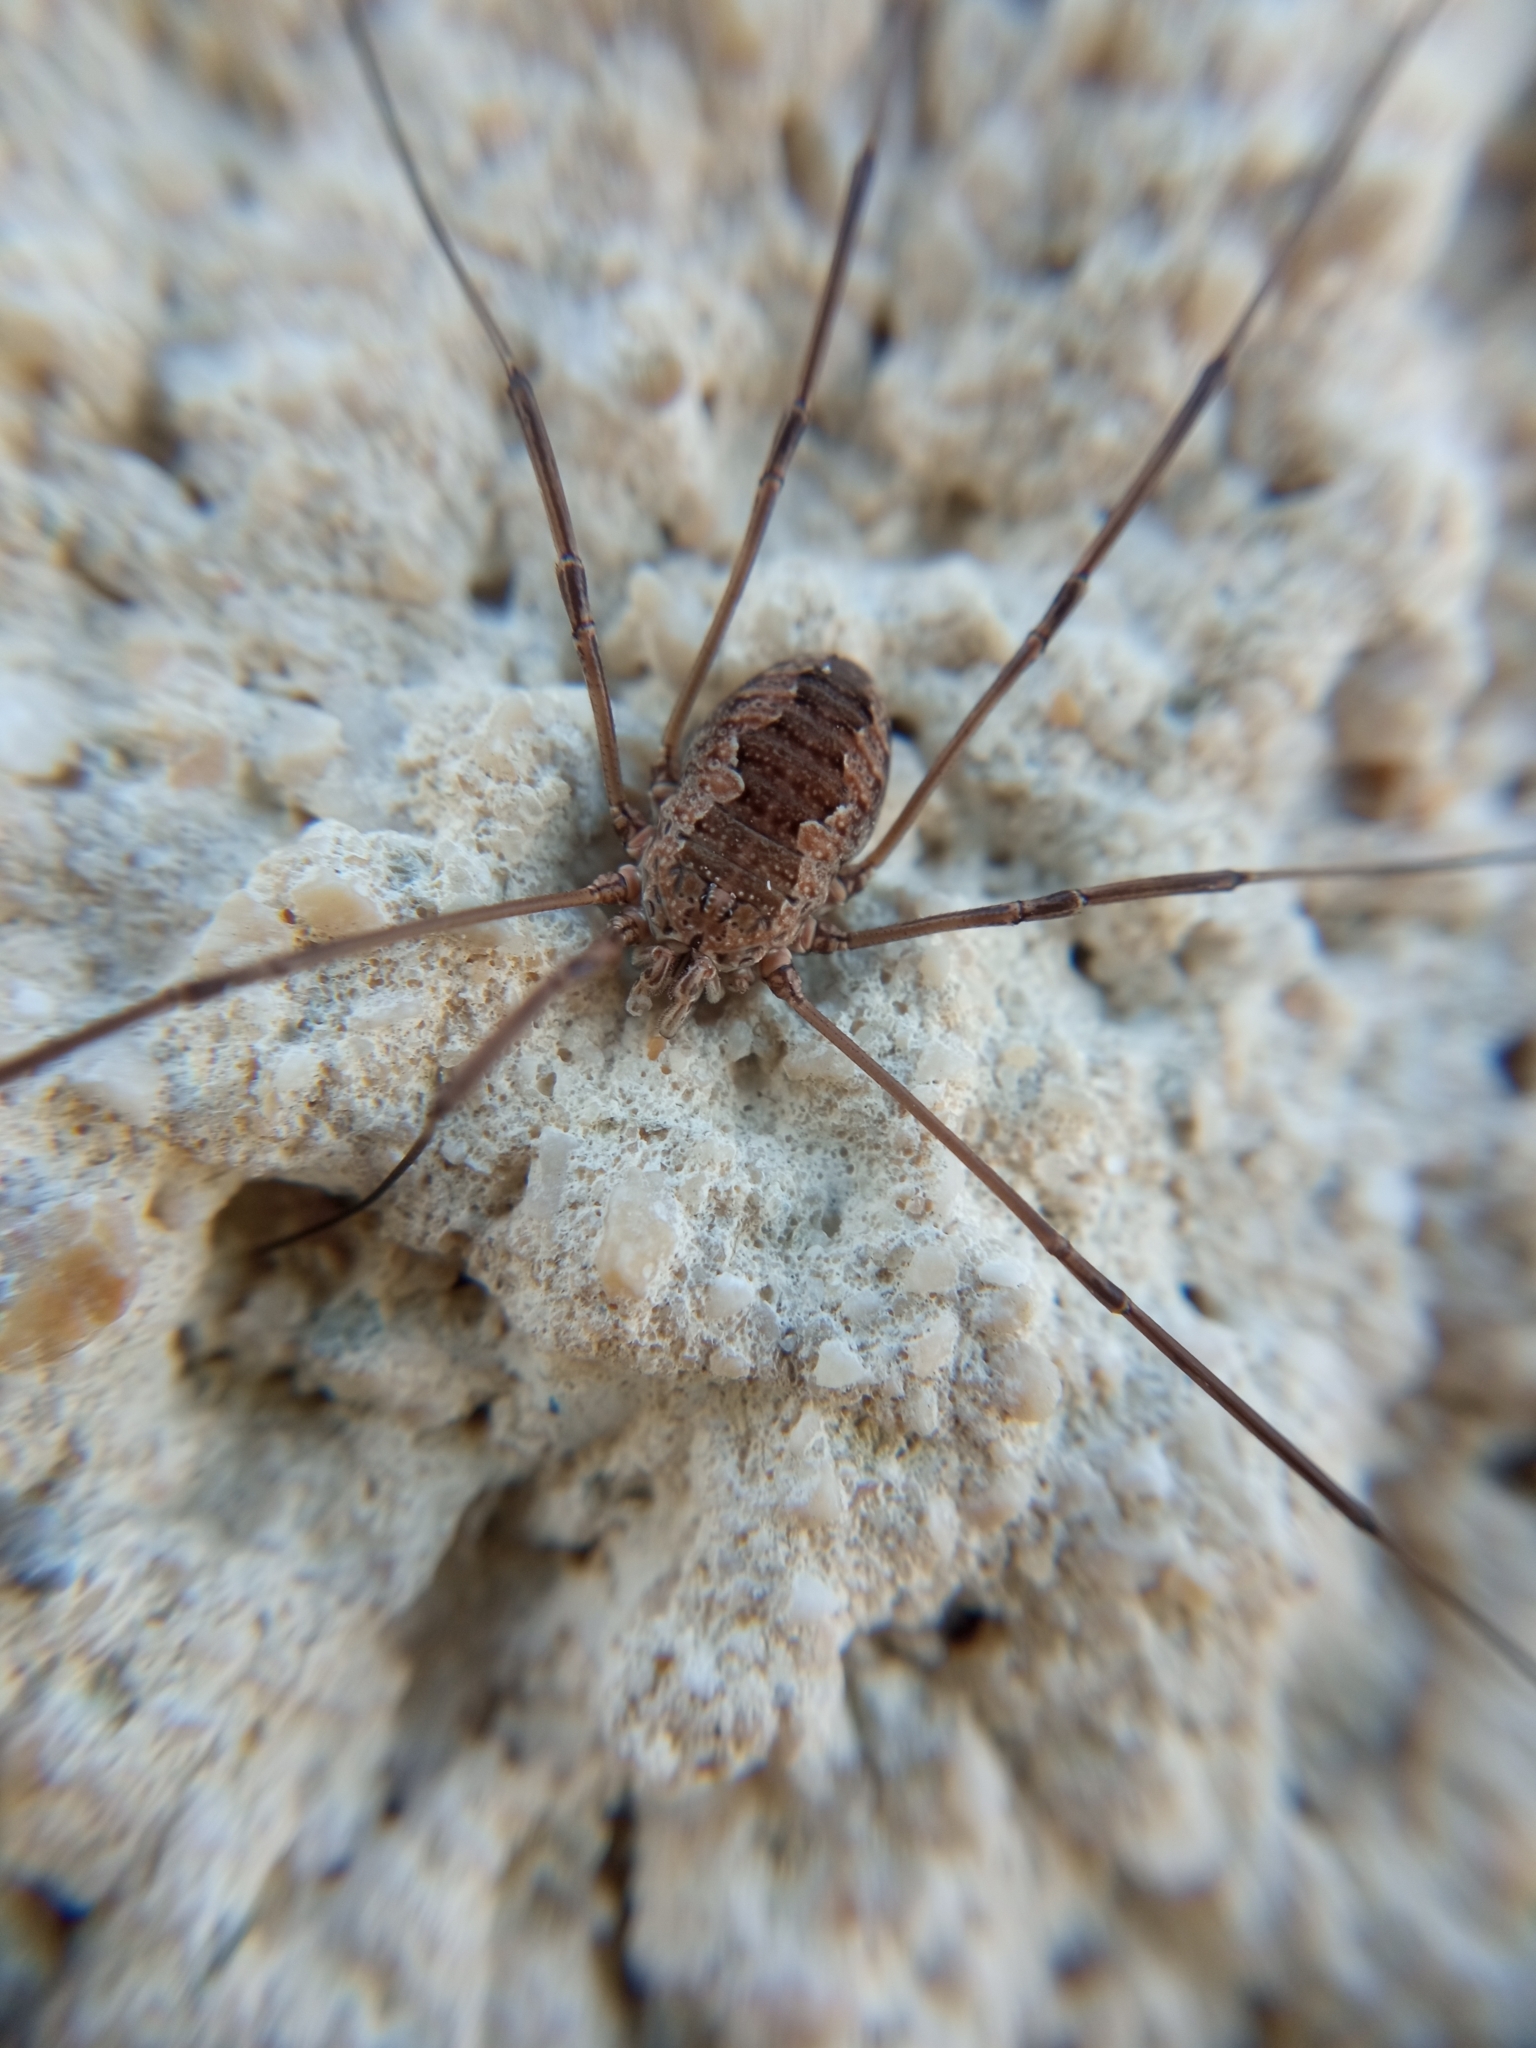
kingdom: Animalia
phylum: Arthropoda
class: Arachnida
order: Opiliones
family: Phalangiidae
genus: Phalangium
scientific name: Phalangium opilio
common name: Daddy longleg
